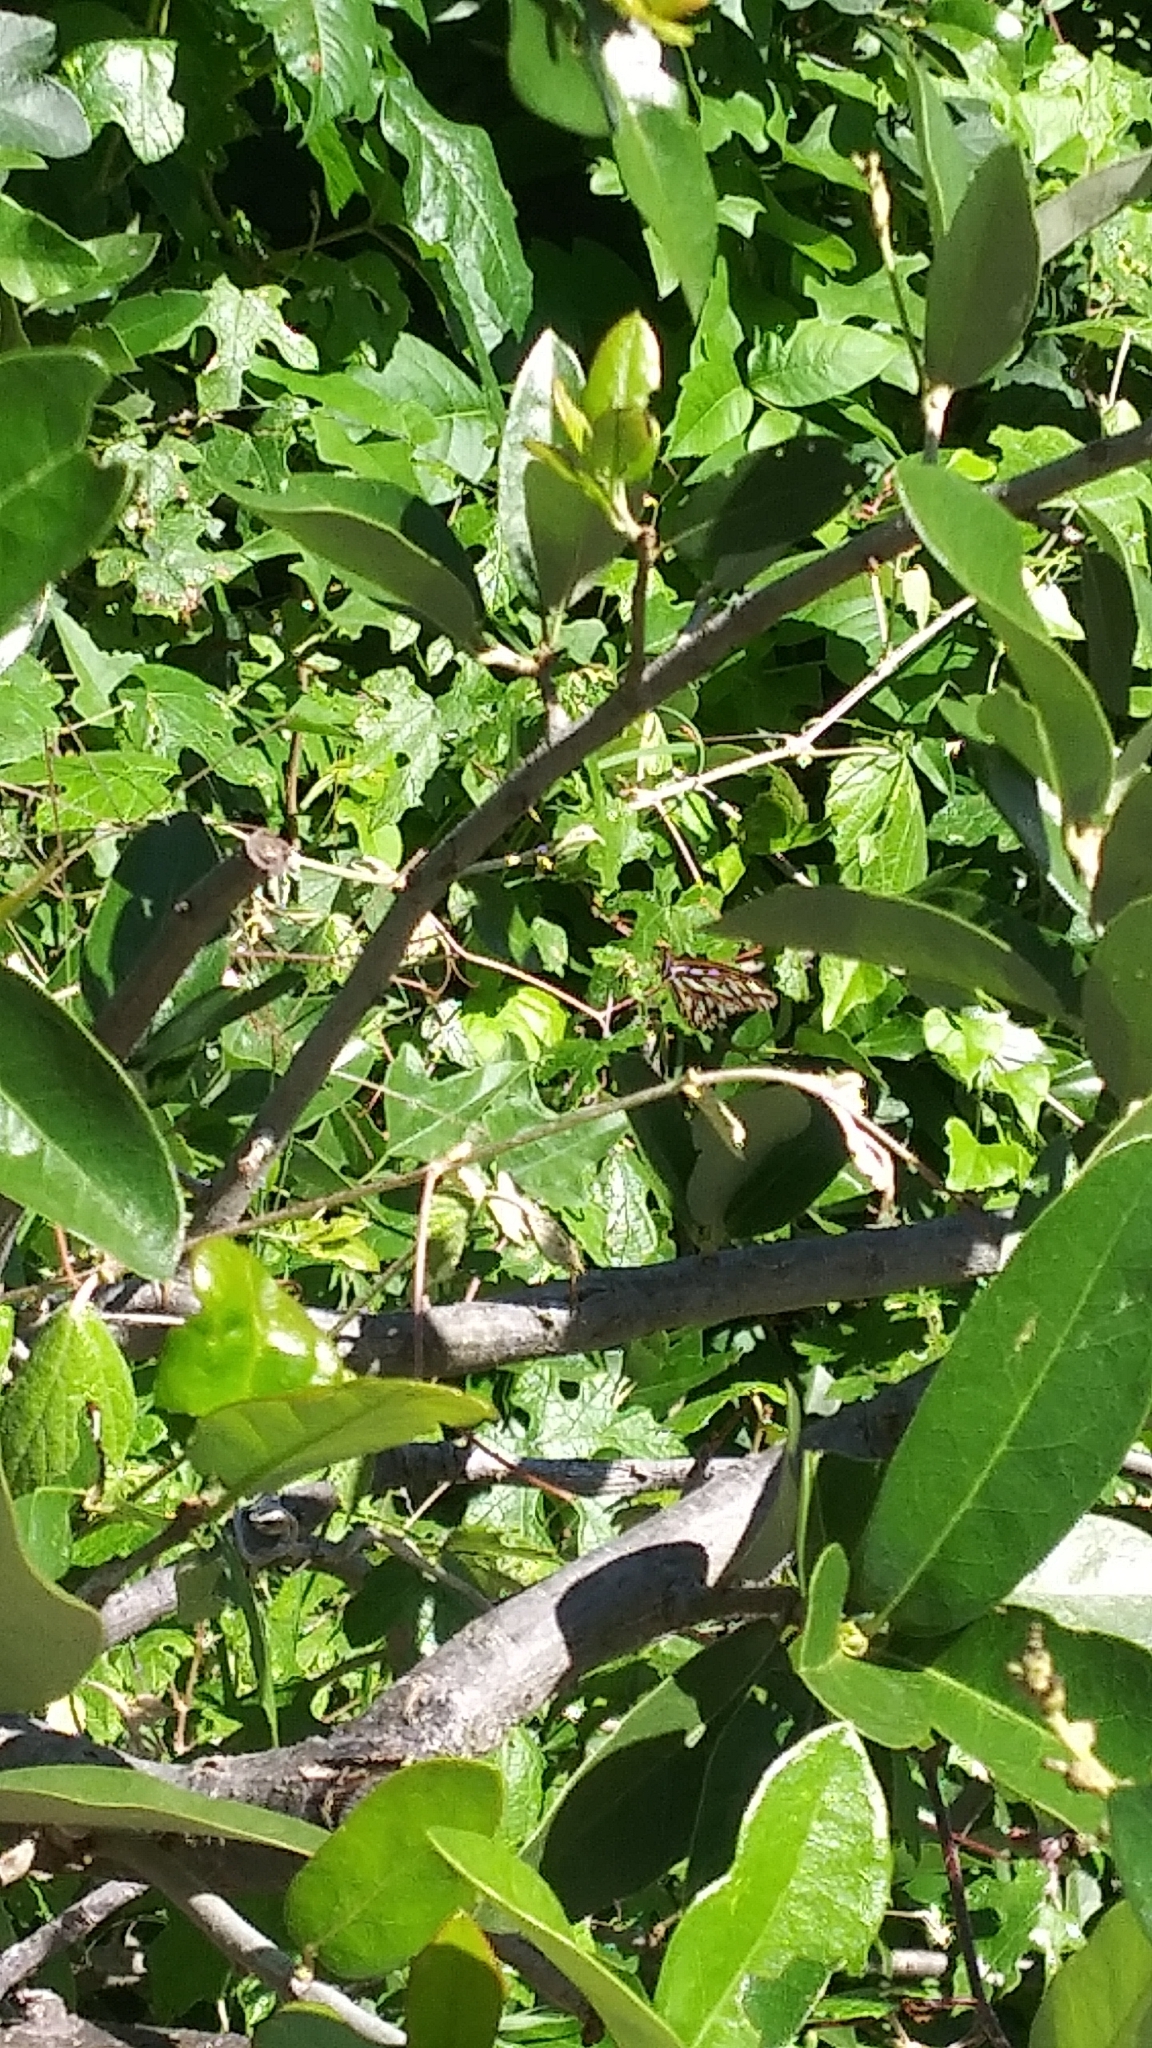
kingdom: Animalia
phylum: Arthropoda
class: Insecta
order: Lepidoptera
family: Nymphalidae
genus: Dione
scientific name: Dione vanillae
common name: Gulf fritillary
